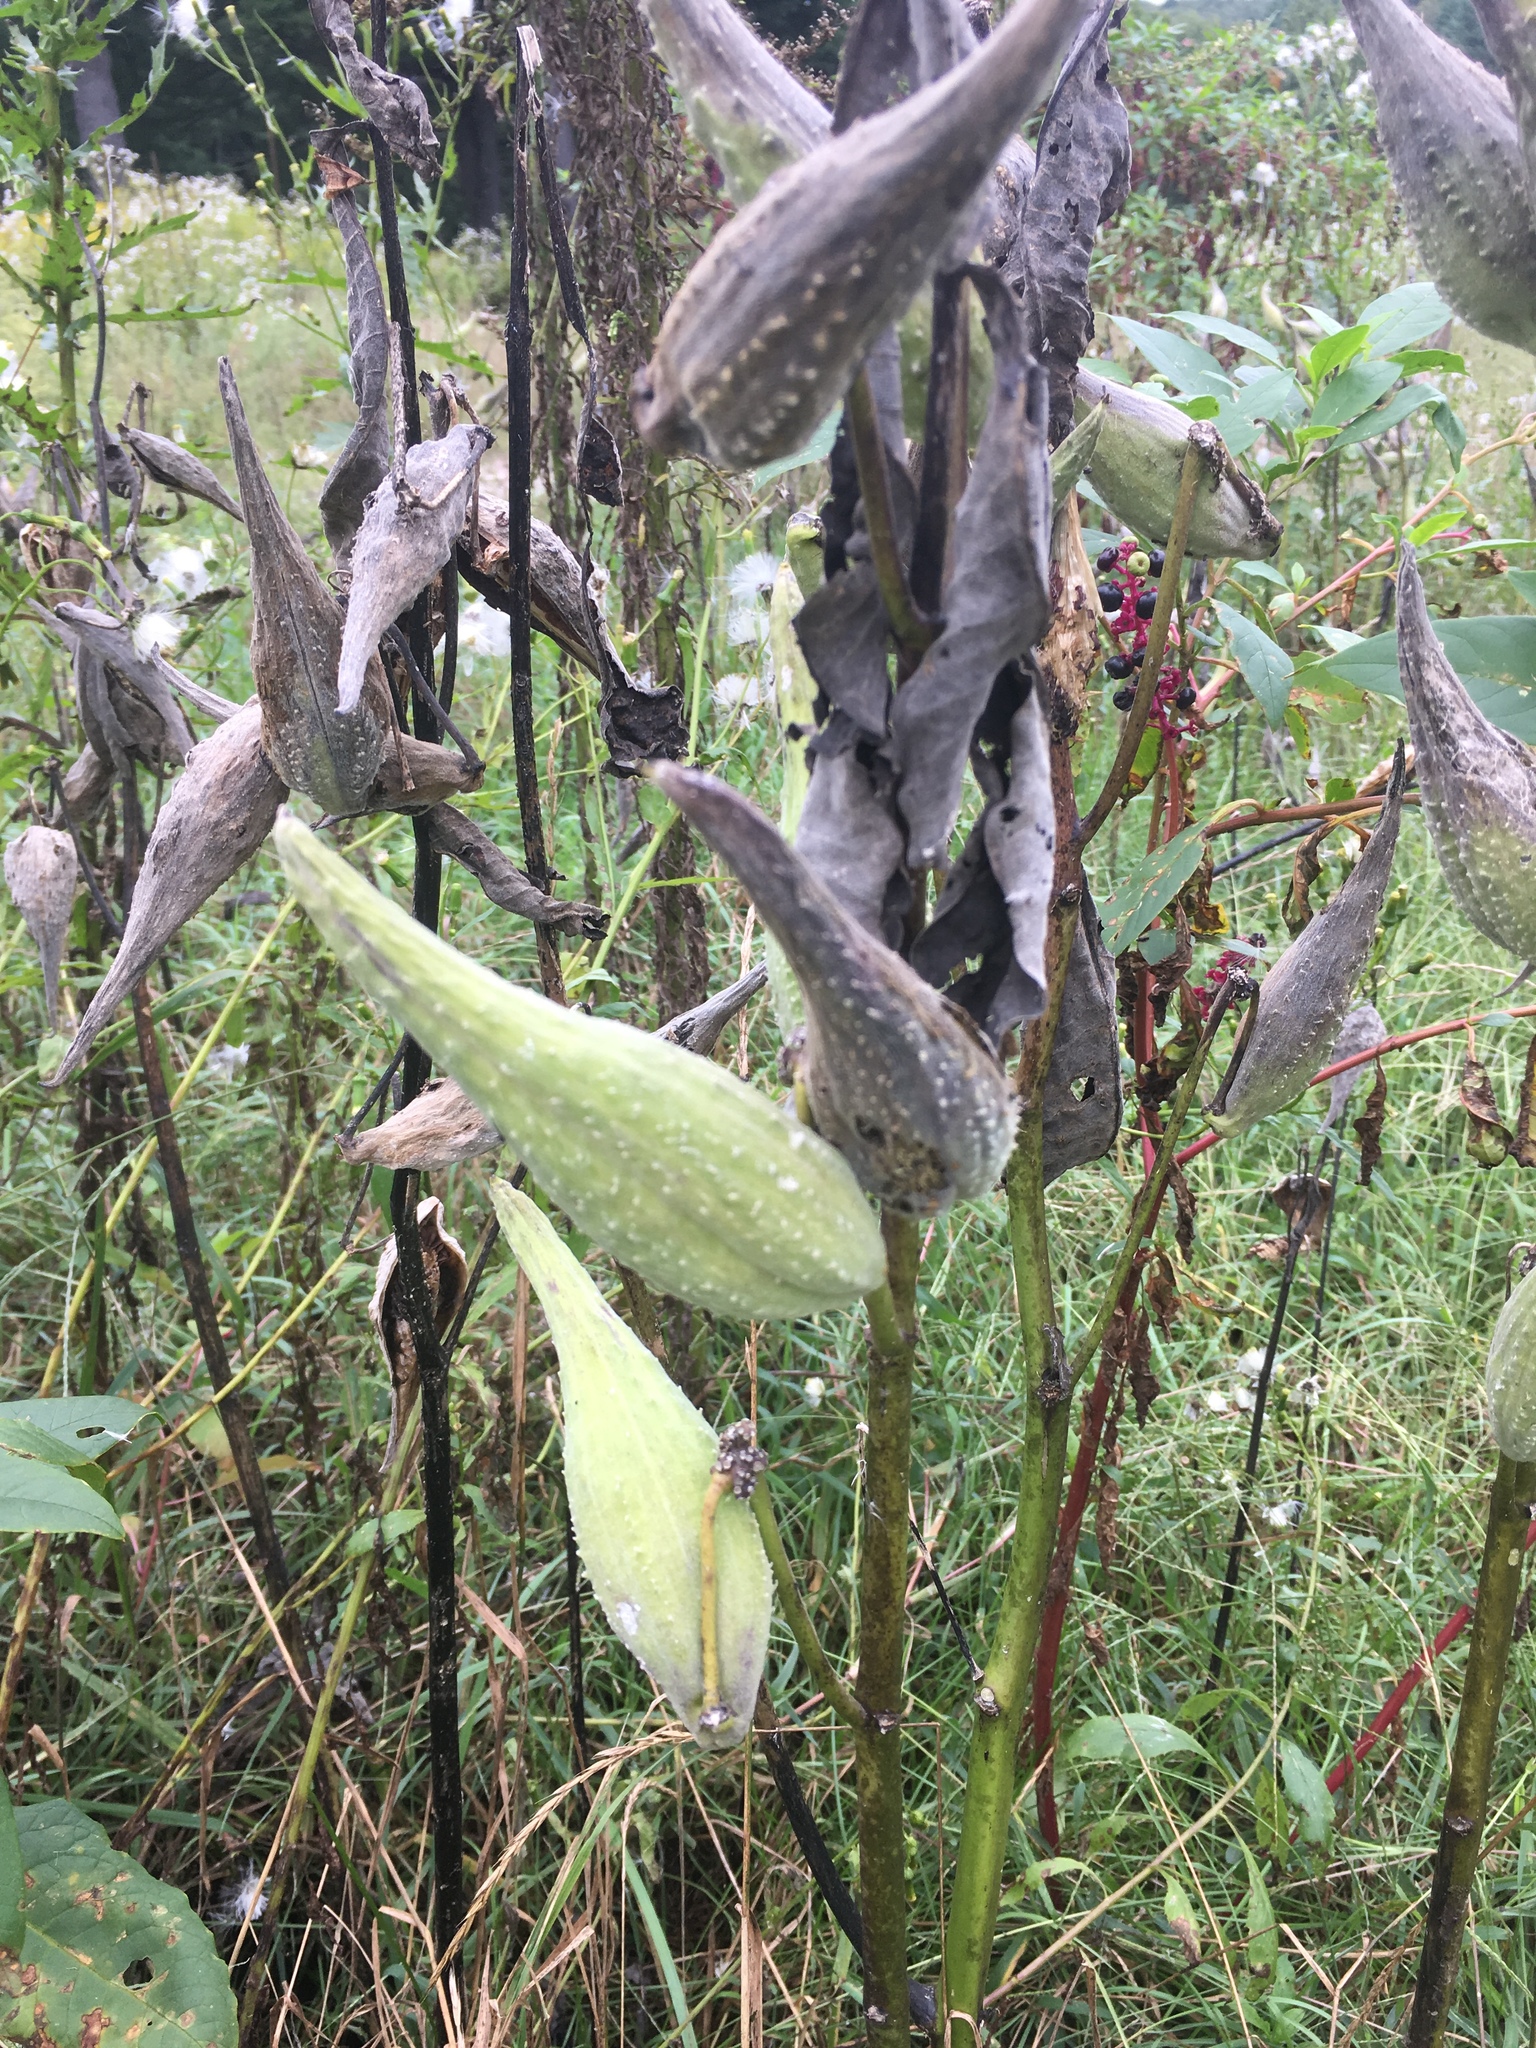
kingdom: Plantae
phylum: Tracheophyta
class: Magnoliopsida
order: Gentianales
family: Apocynaceae
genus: Asclepias
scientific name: Asclepias syriaca
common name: Common milkweed
